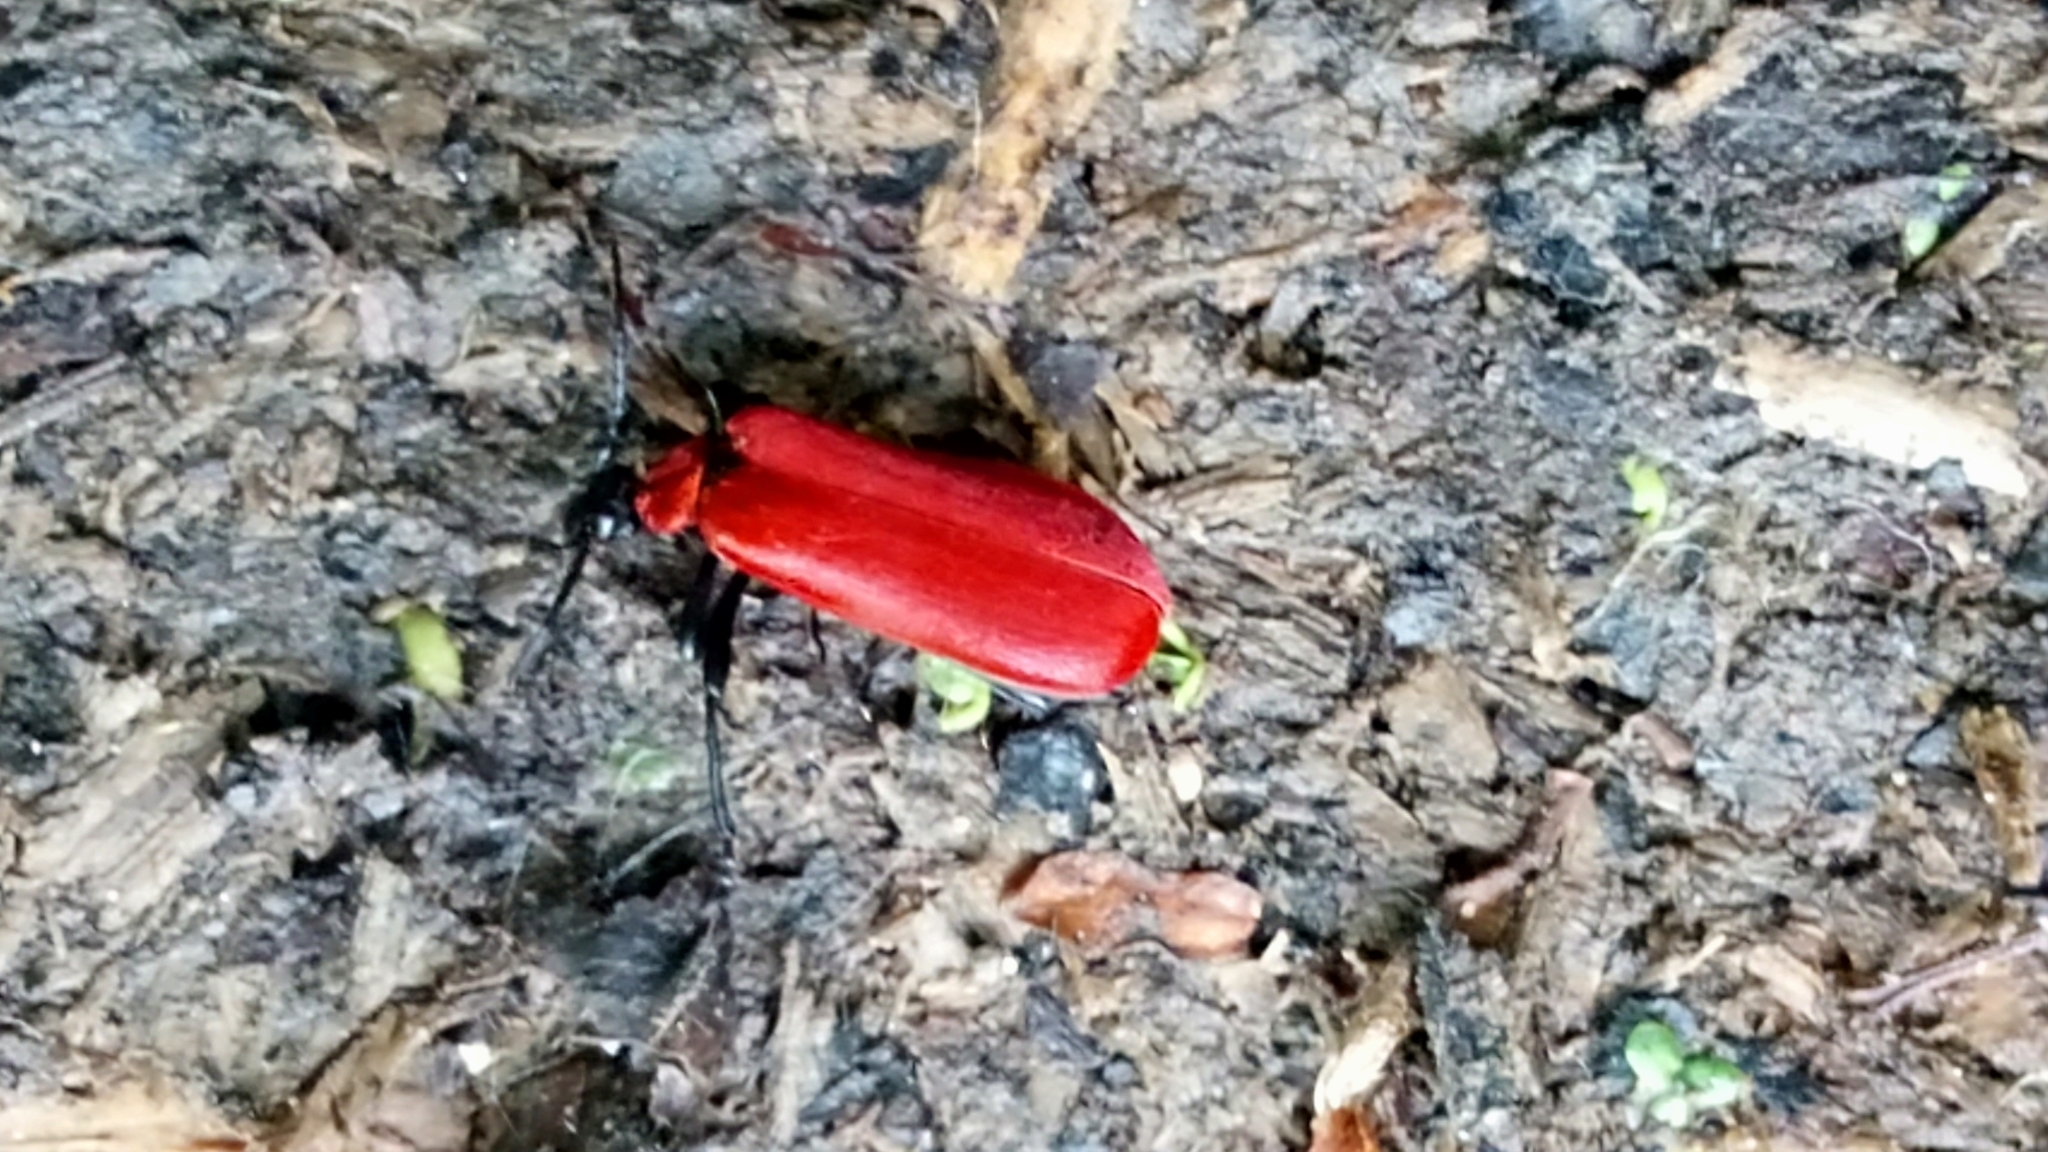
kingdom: Animalia
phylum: Arthropoda
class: Insecta
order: Coleoptera
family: Pyrochroidae
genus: Pyrochroa
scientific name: Pyrochroa coccinea
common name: Black-headed cardinal beetle
